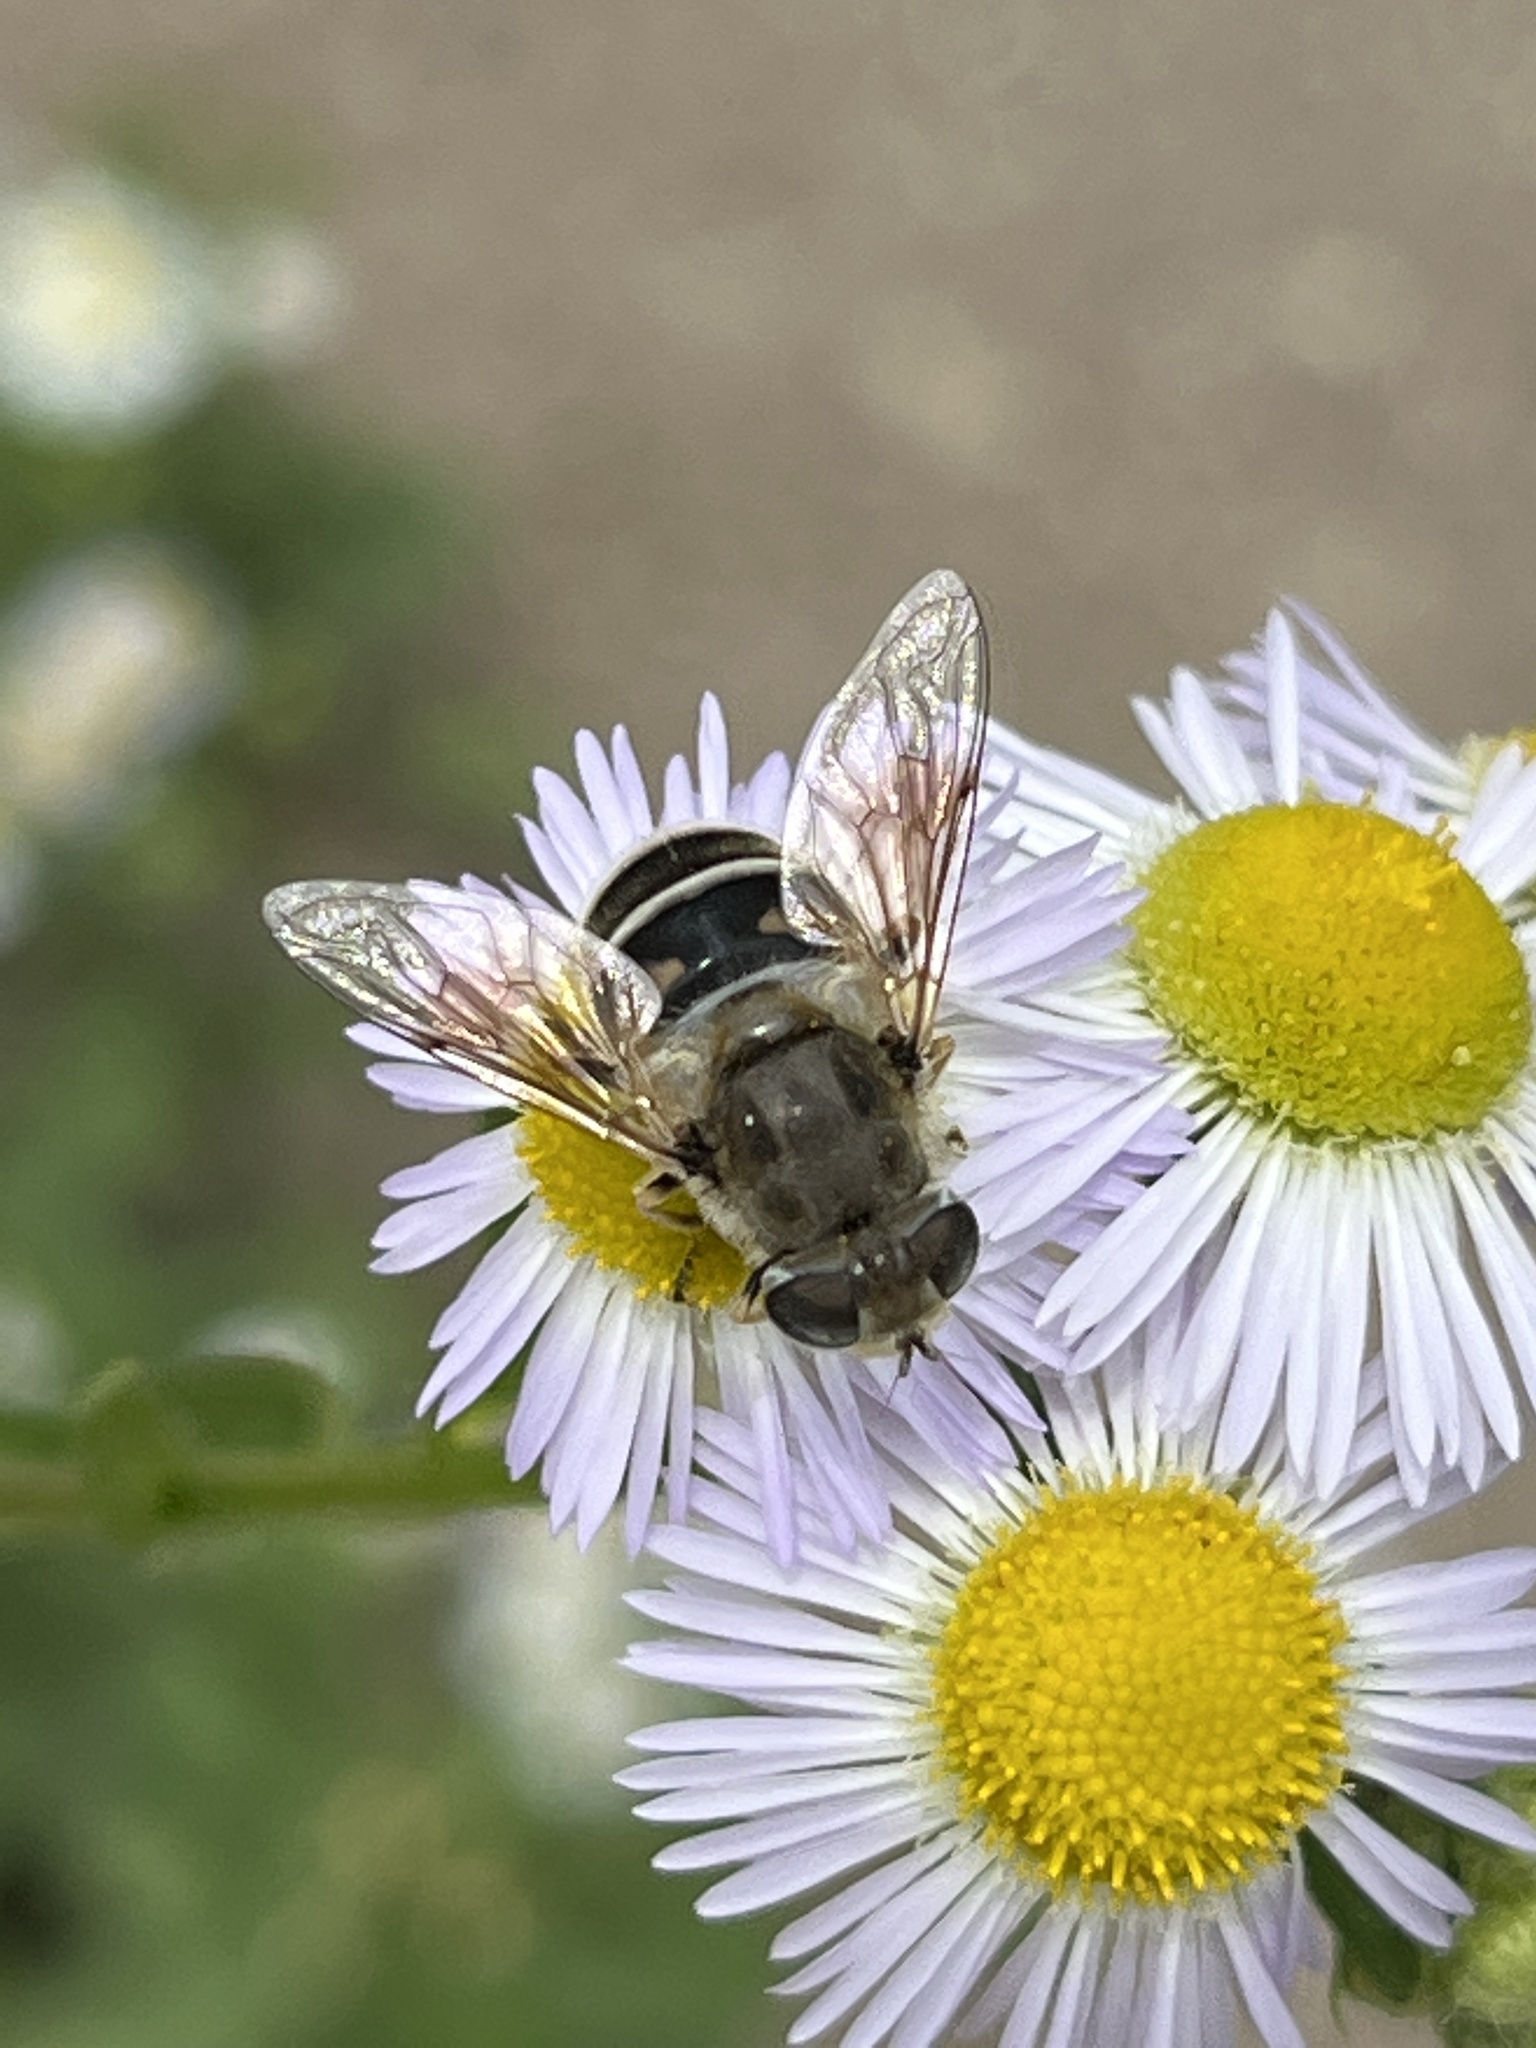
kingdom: Animalia
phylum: Arthropoda
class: Insecta
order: Diptera
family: Syrphidae
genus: Eristalis
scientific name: Eristalis arbustorum
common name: Hover fly
